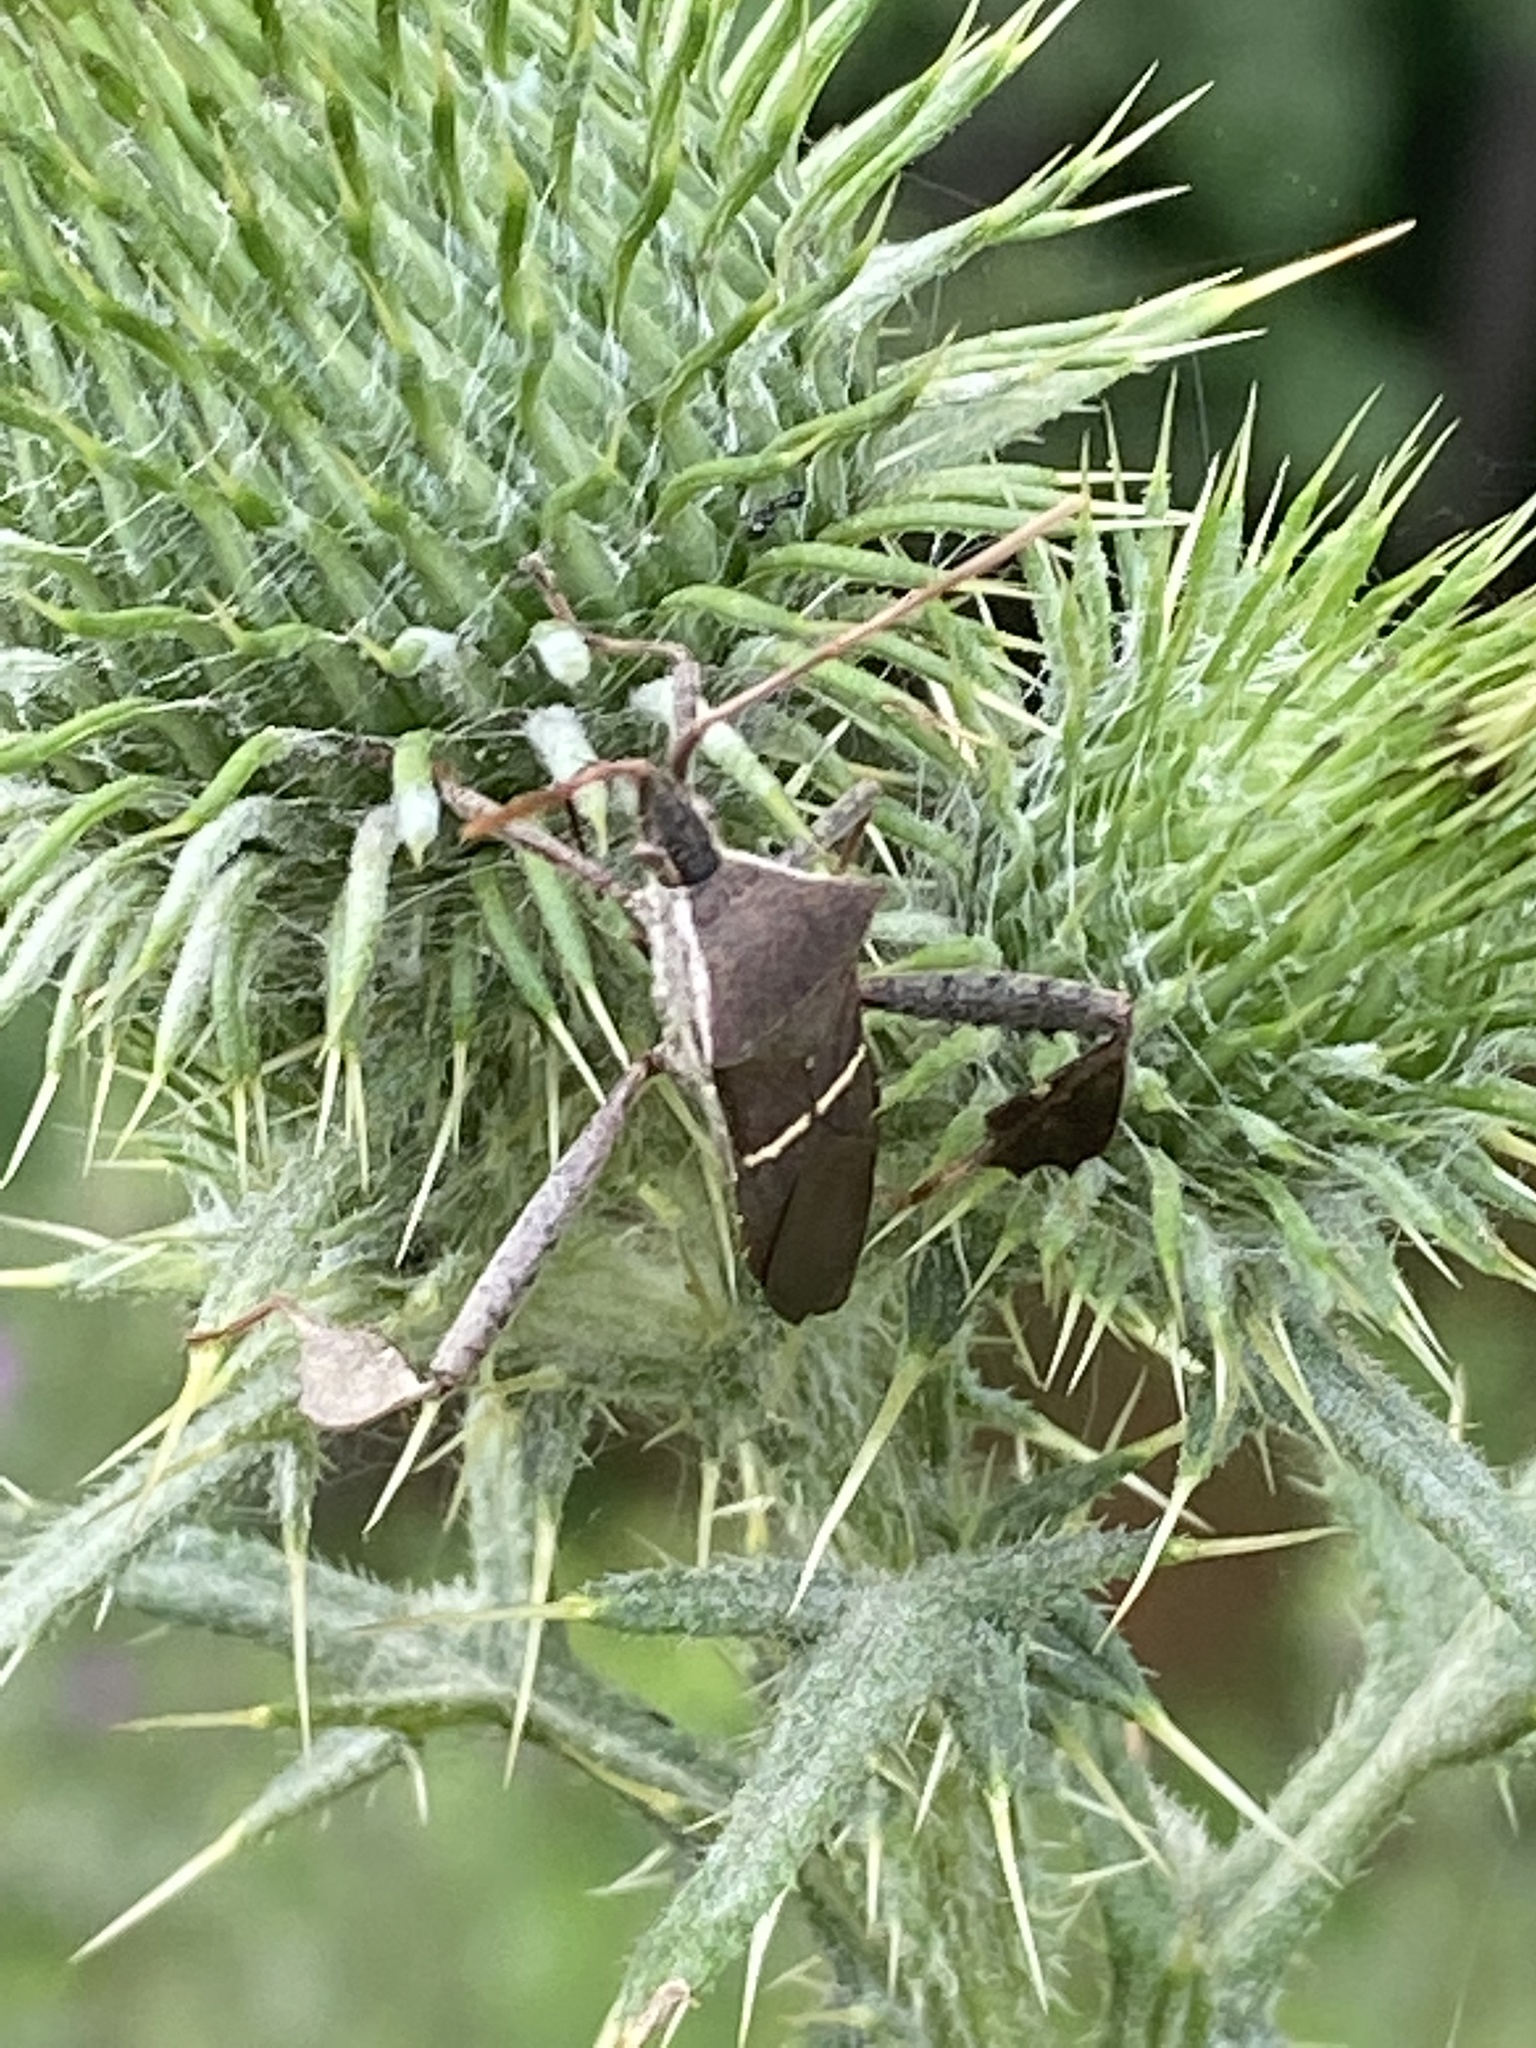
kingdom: Animalia
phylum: Arthropoda
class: Insecta
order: Hemiptera
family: Coreidae
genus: Leptoglossus
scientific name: Leptoglossus phyllopus
